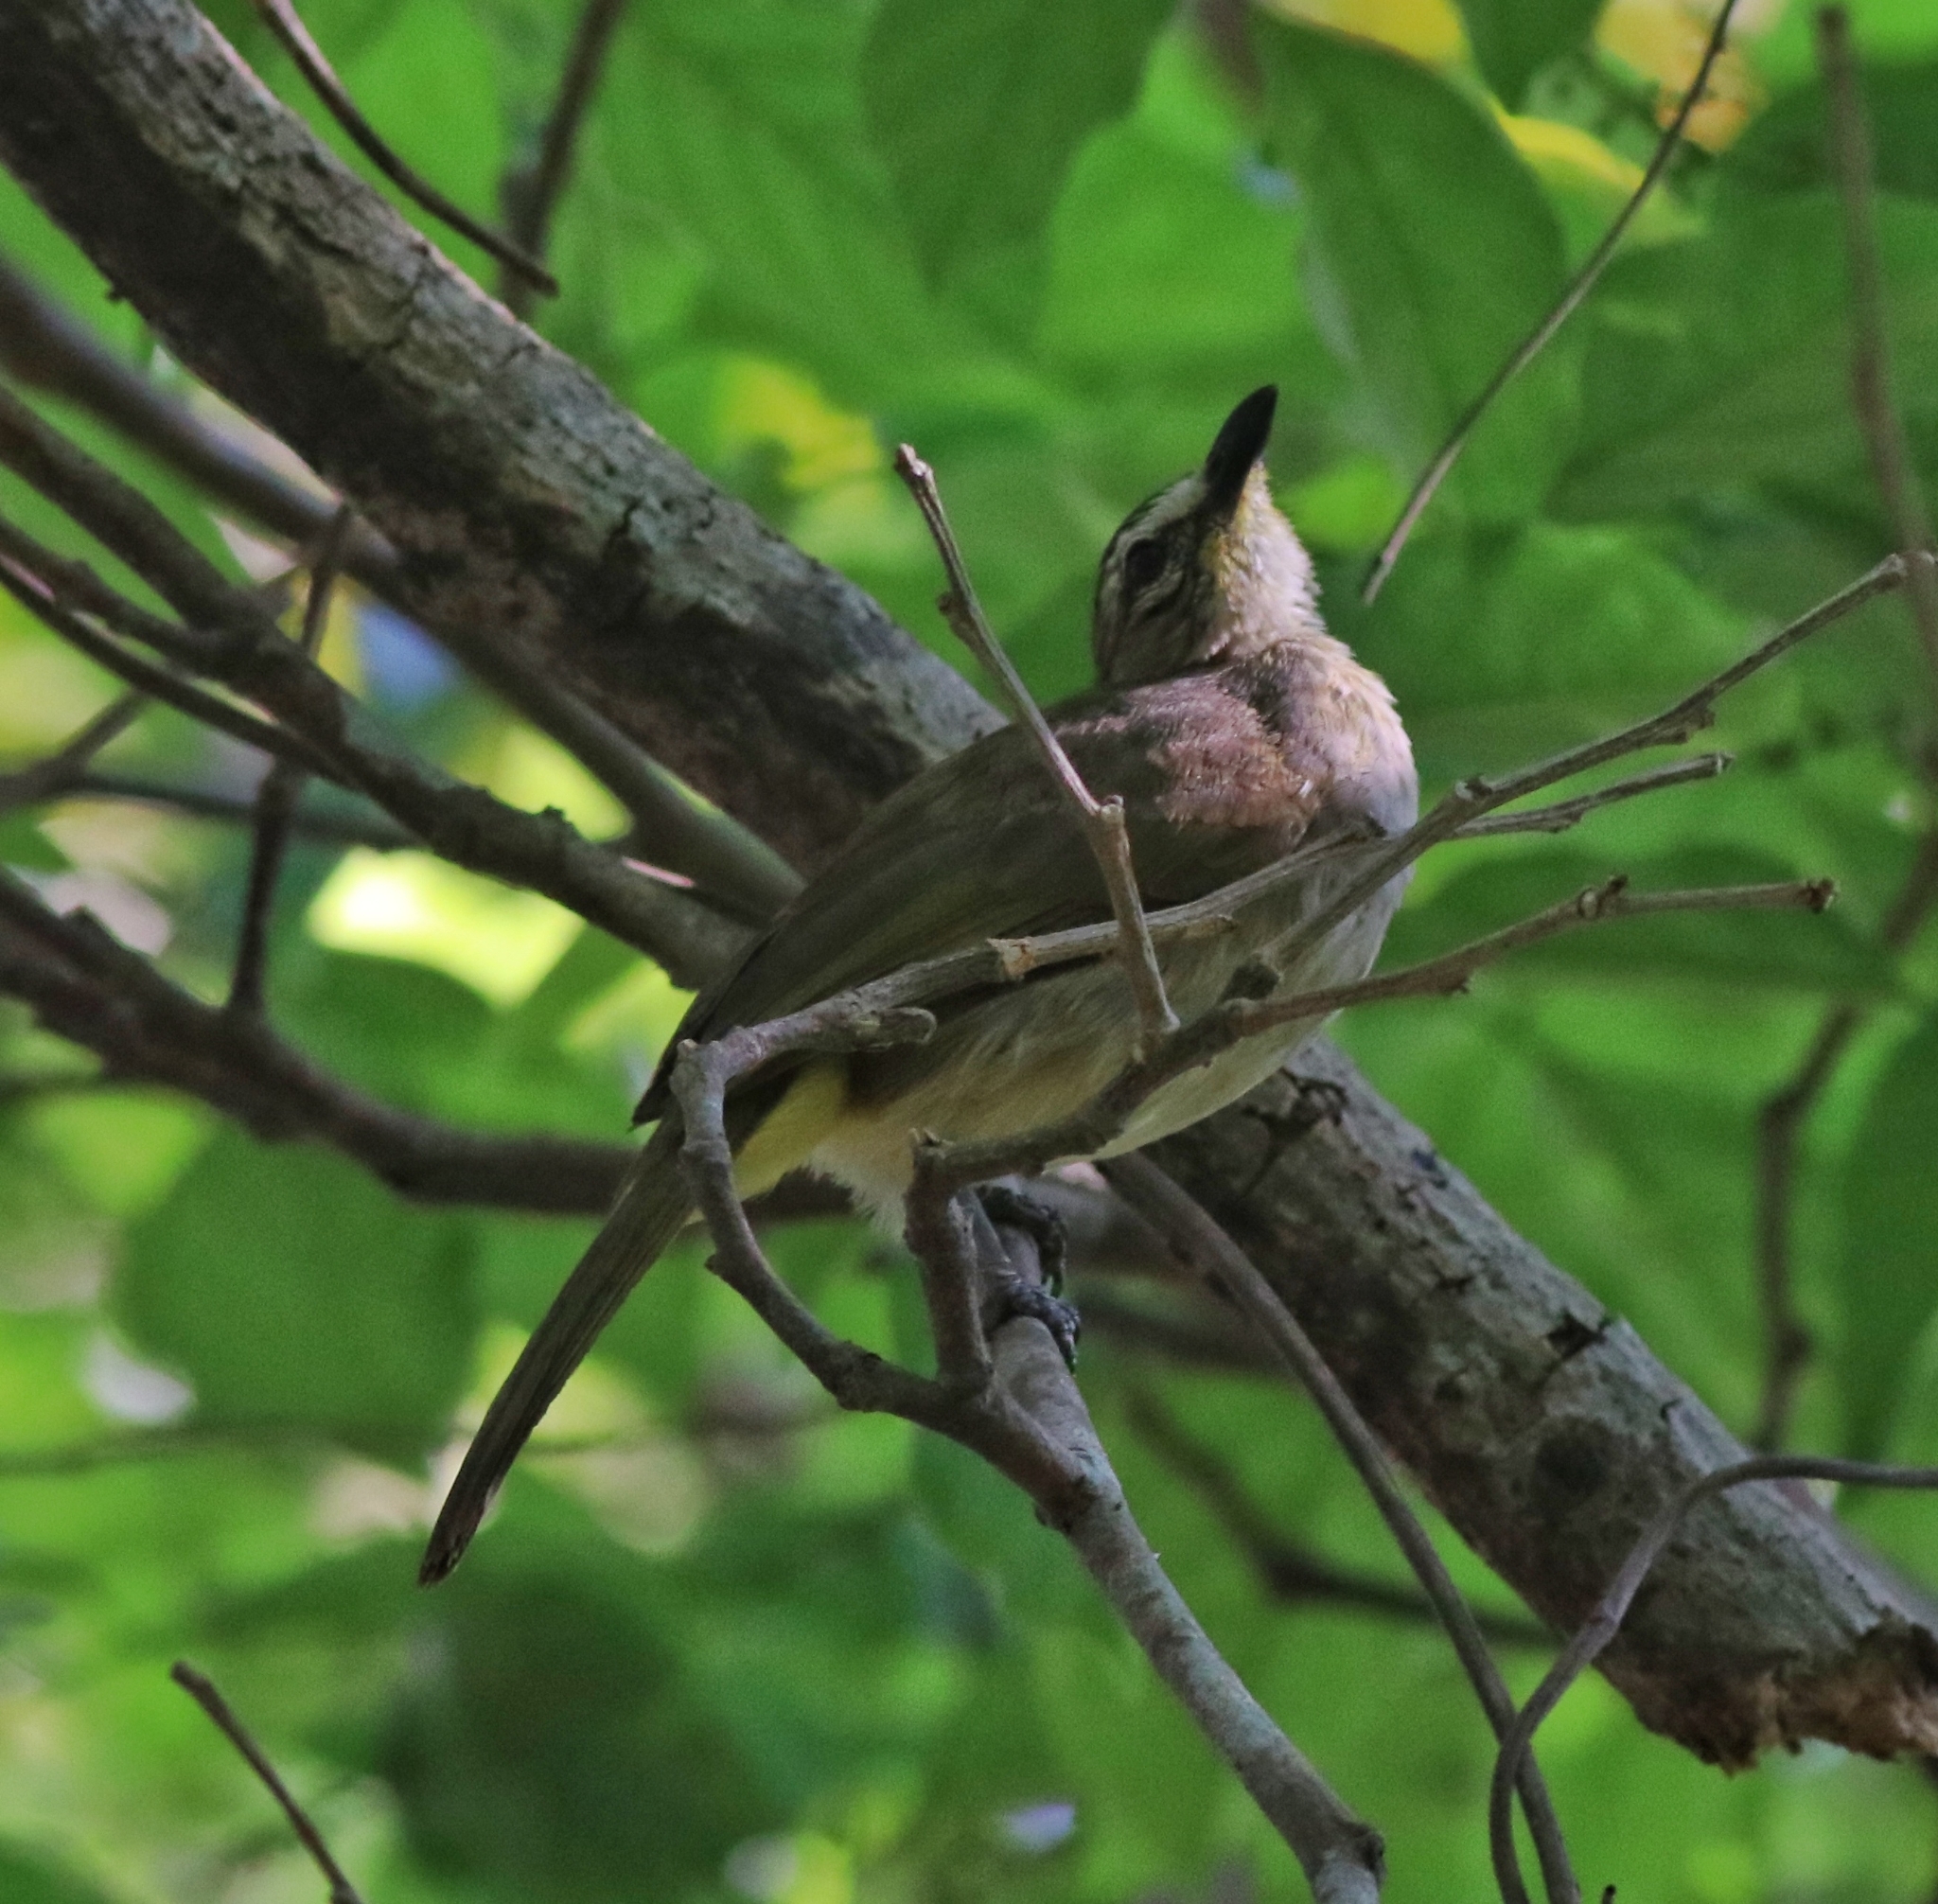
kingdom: Animalia
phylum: Chordata
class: Aves
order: Passeriformes
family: Pycnonotidae
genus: Pycnonotus
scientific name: Pycnonotus luteolus
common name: White-browed bulbul
